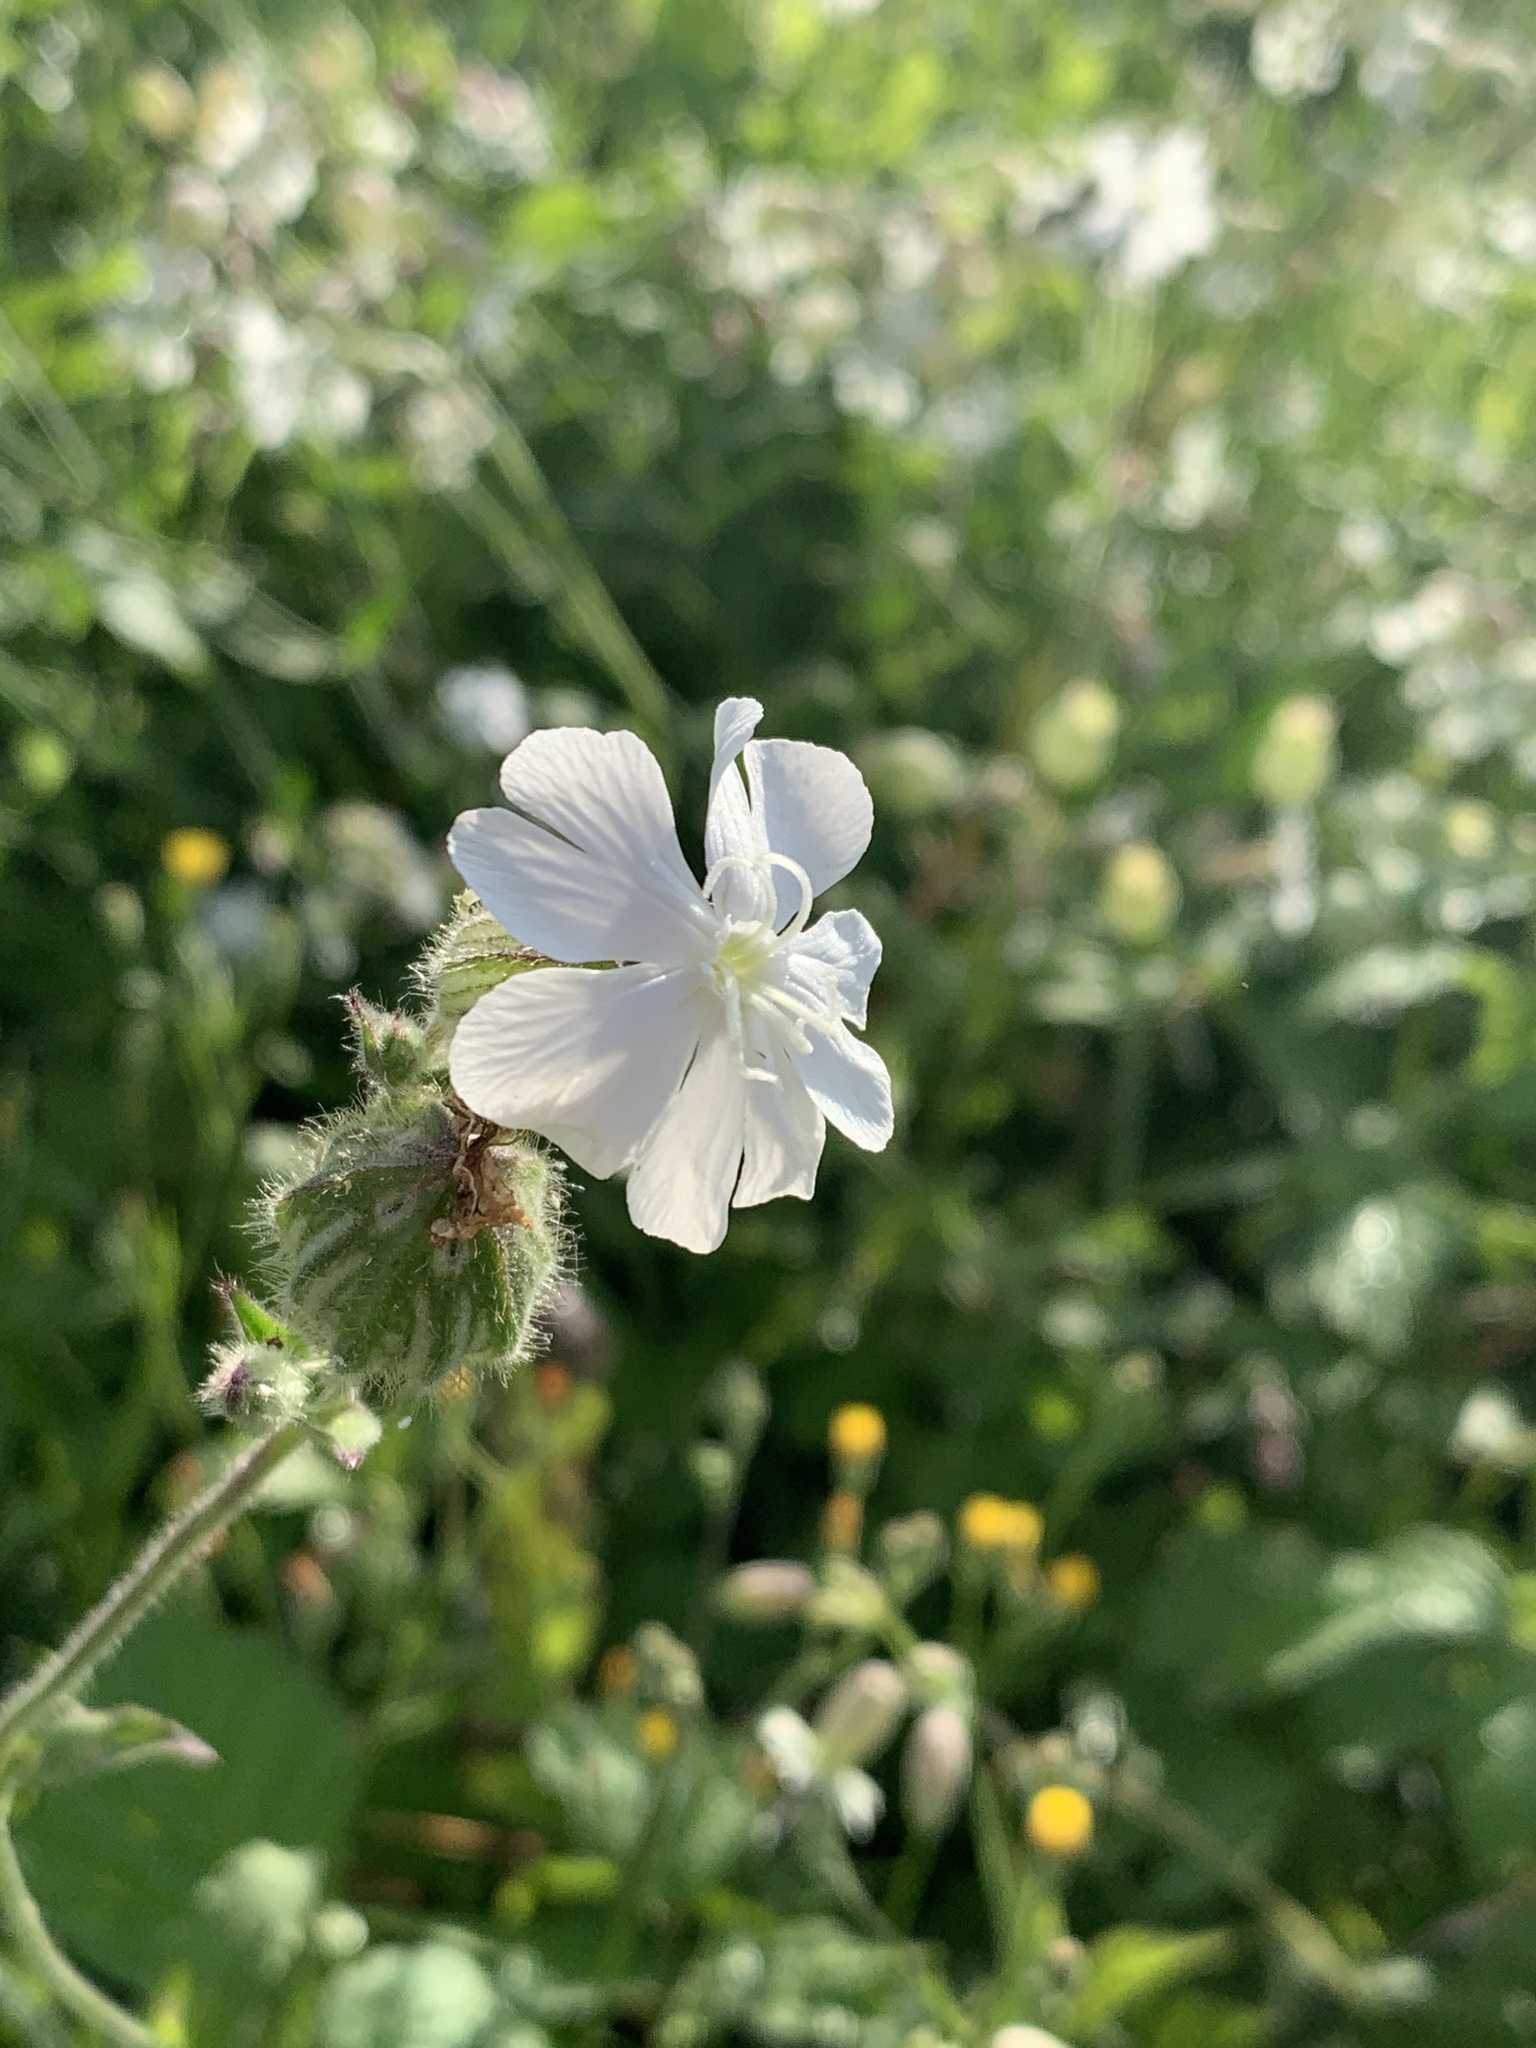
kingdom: Plantae
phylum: Tracheophyta
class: Magnoliopsida
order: Caryophyllales
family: Caryophyllaceae
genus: Silene
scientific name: Silene latifolia
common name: White campion
